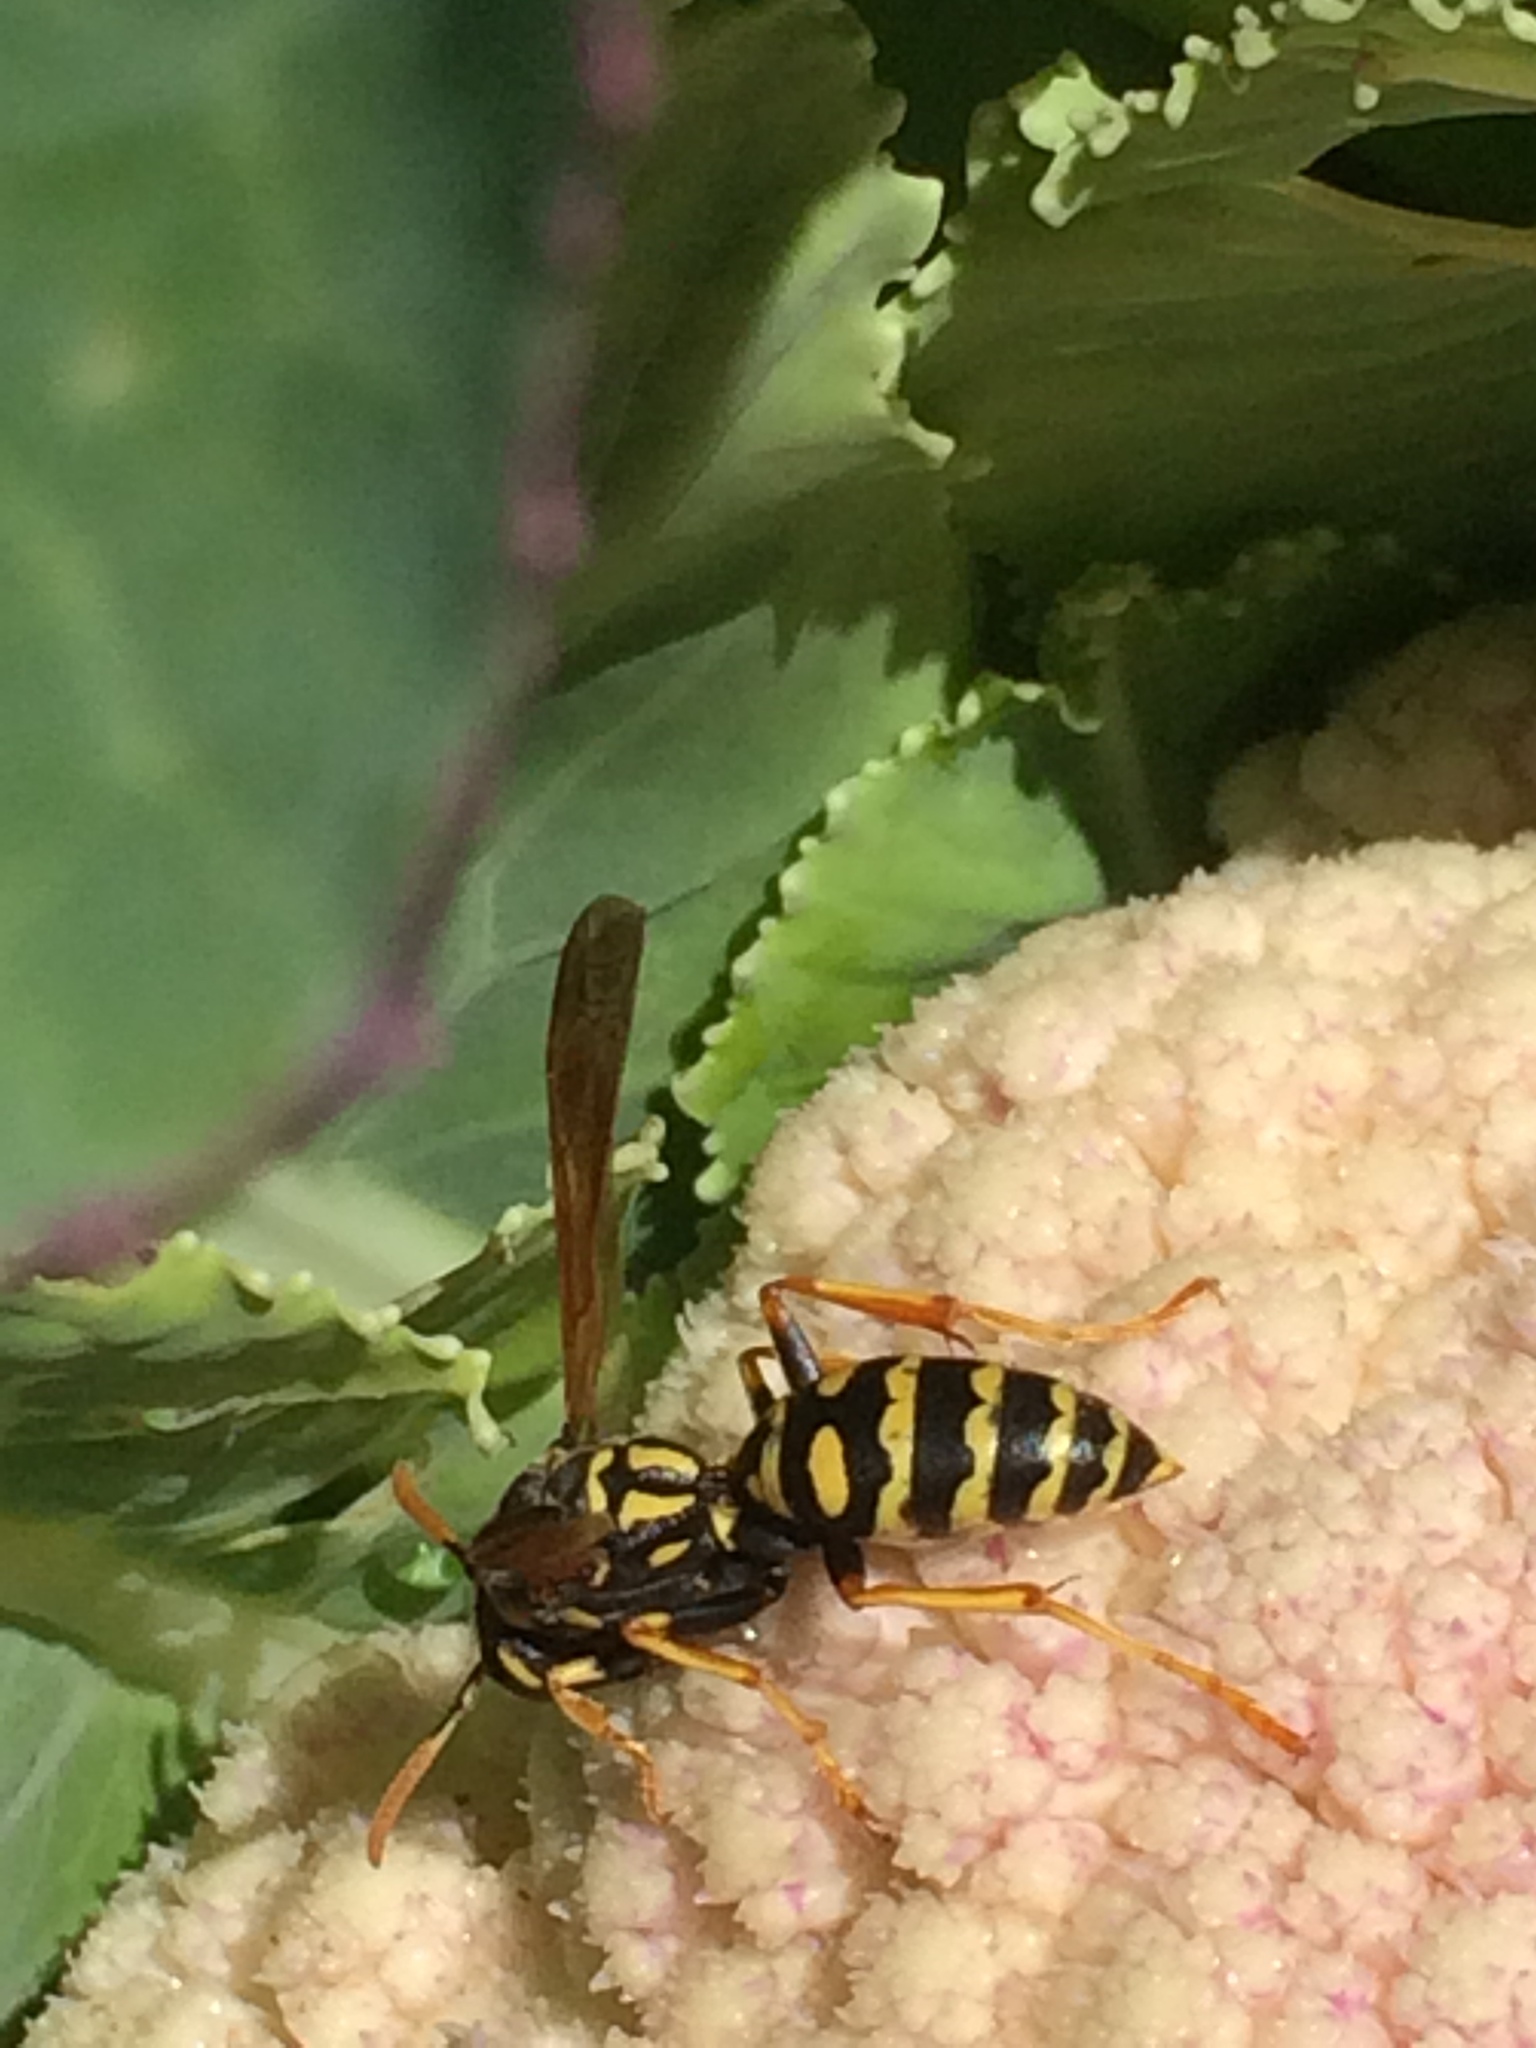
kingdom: Animalia
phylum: Arthropoda
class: Insecta
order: Hymenoptera
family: Eumenidae
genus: Polistes
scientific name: Polistes dominula
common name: Paper wasp
